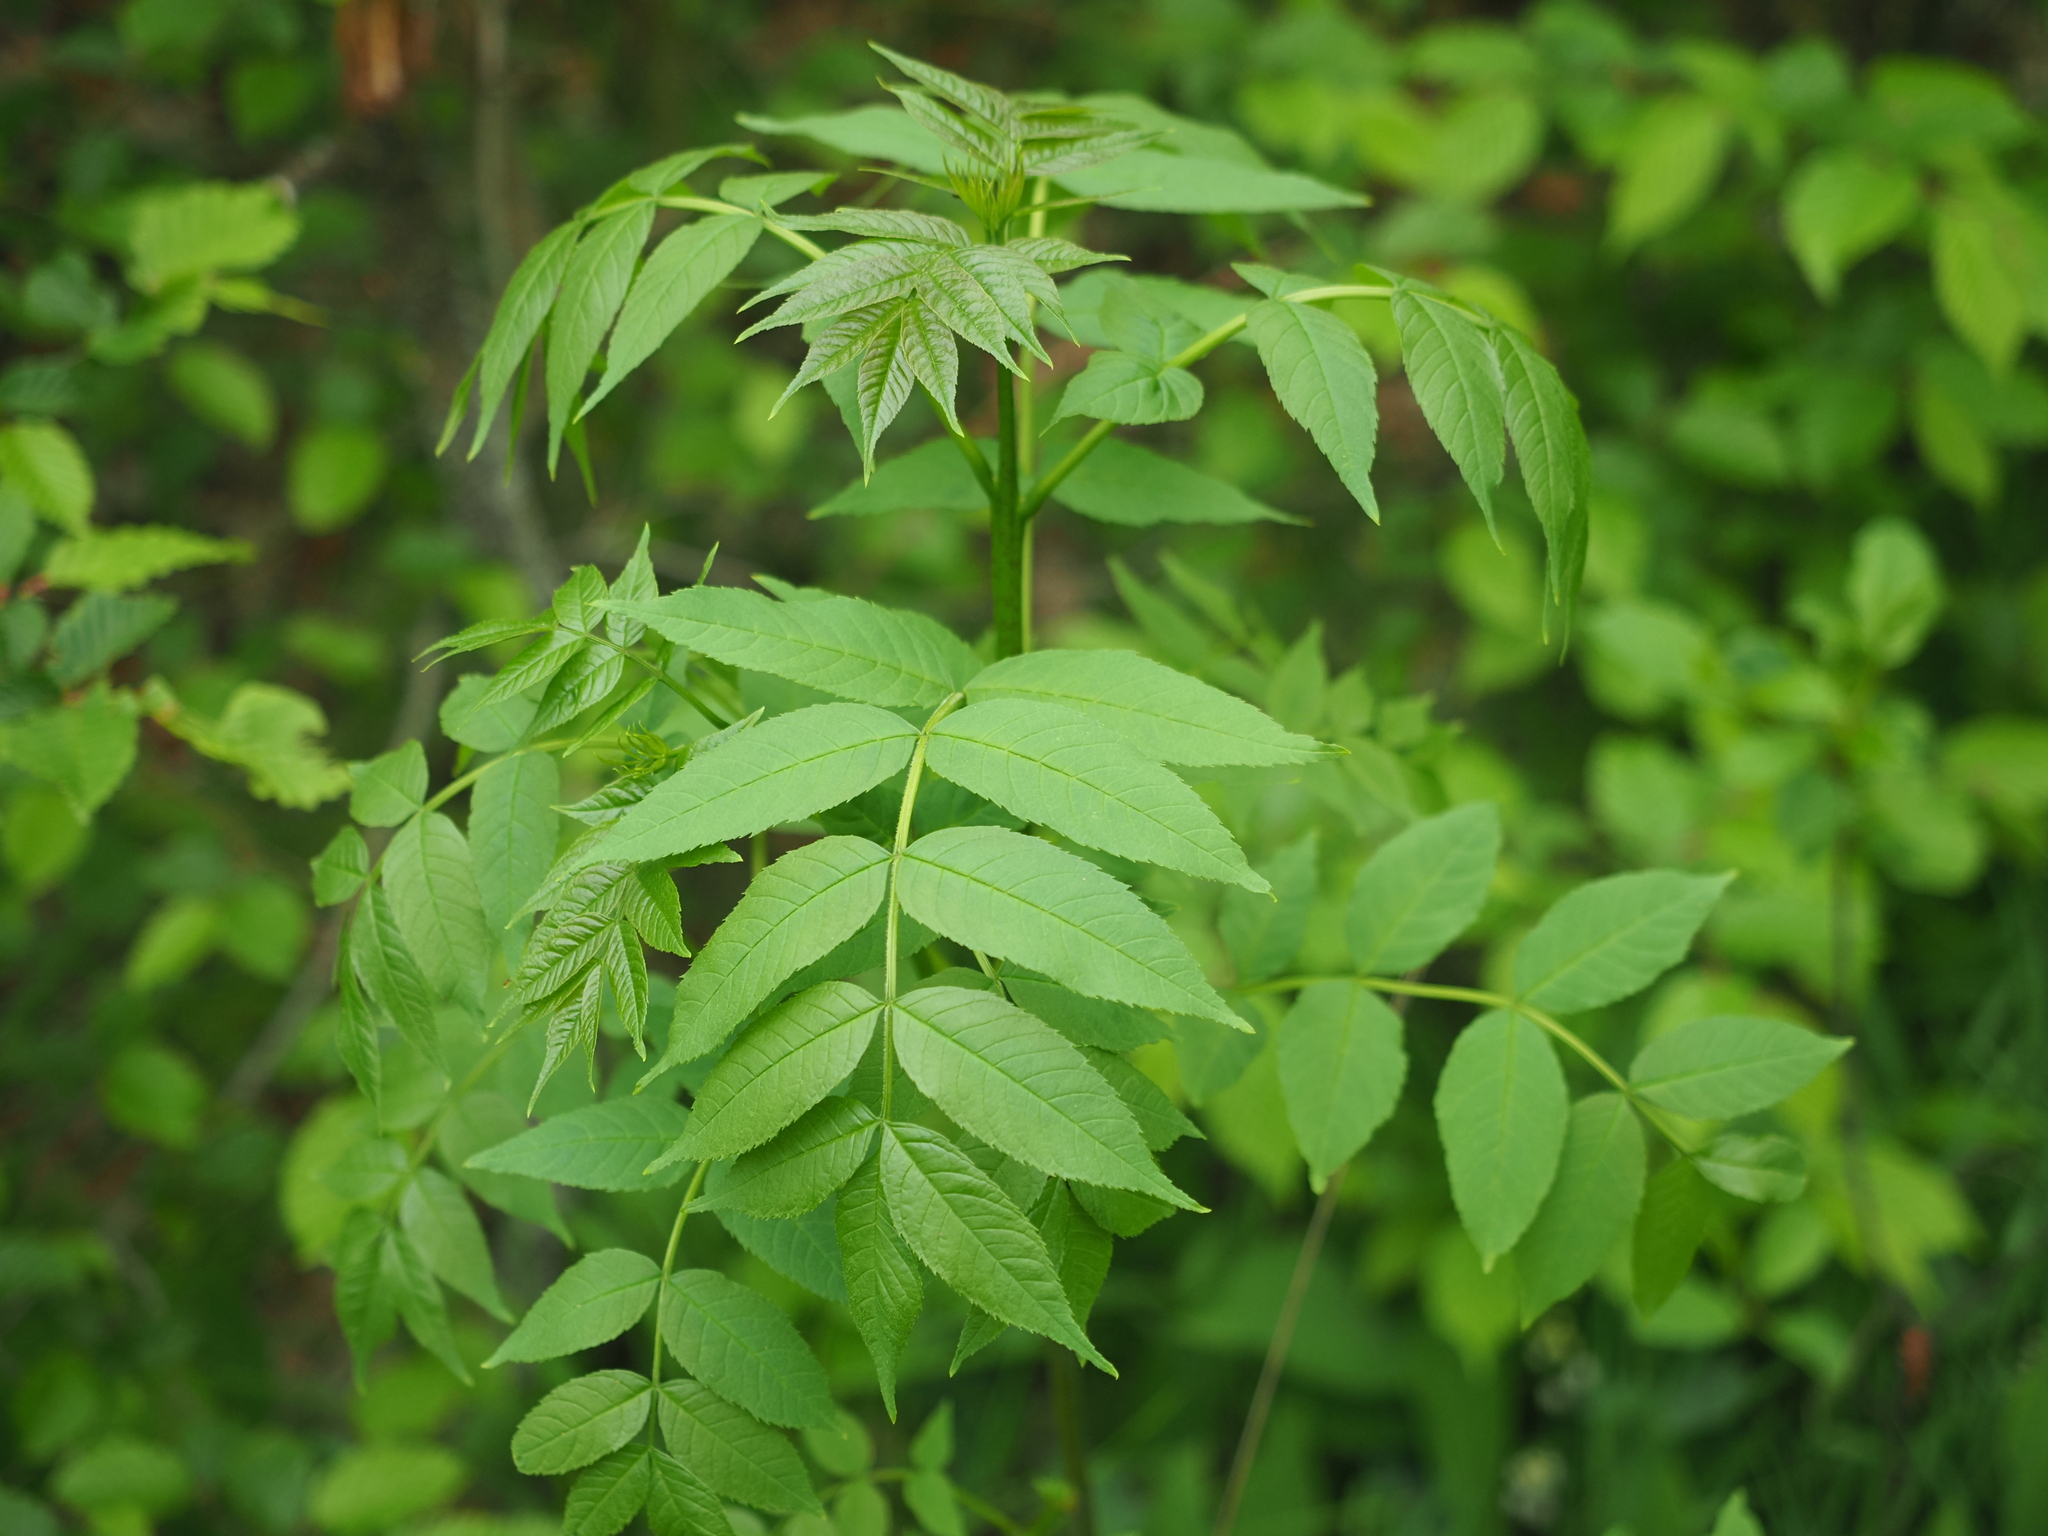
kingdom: Plantae
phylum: Tracheophyta
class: Magnoliopsida
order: Lamiales
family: Oleaceae
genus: Fraxinus
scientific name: Fraxinus excelsior
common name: European ash
